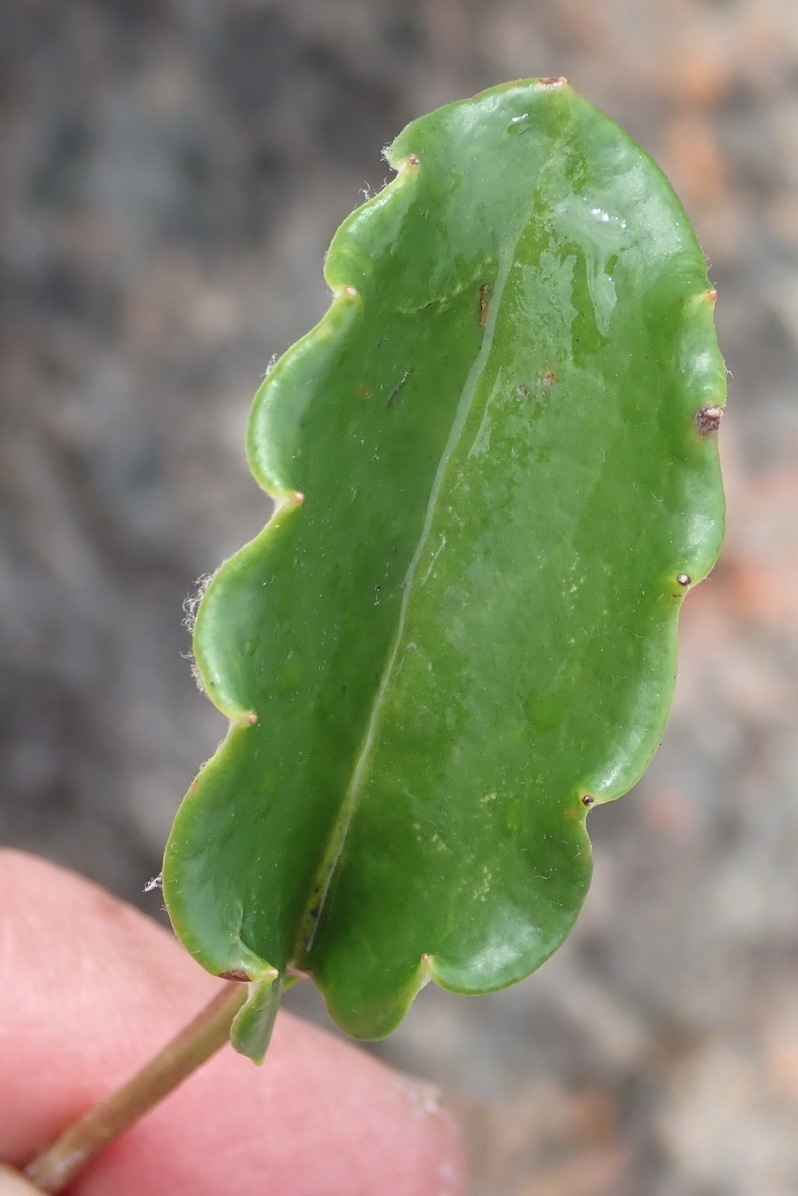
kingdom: Plantae
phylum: Tracheophyta
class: Magnoliopsida
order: Asterales
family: Asteraceae
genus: Gerbera
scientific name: Gerbera serrata
